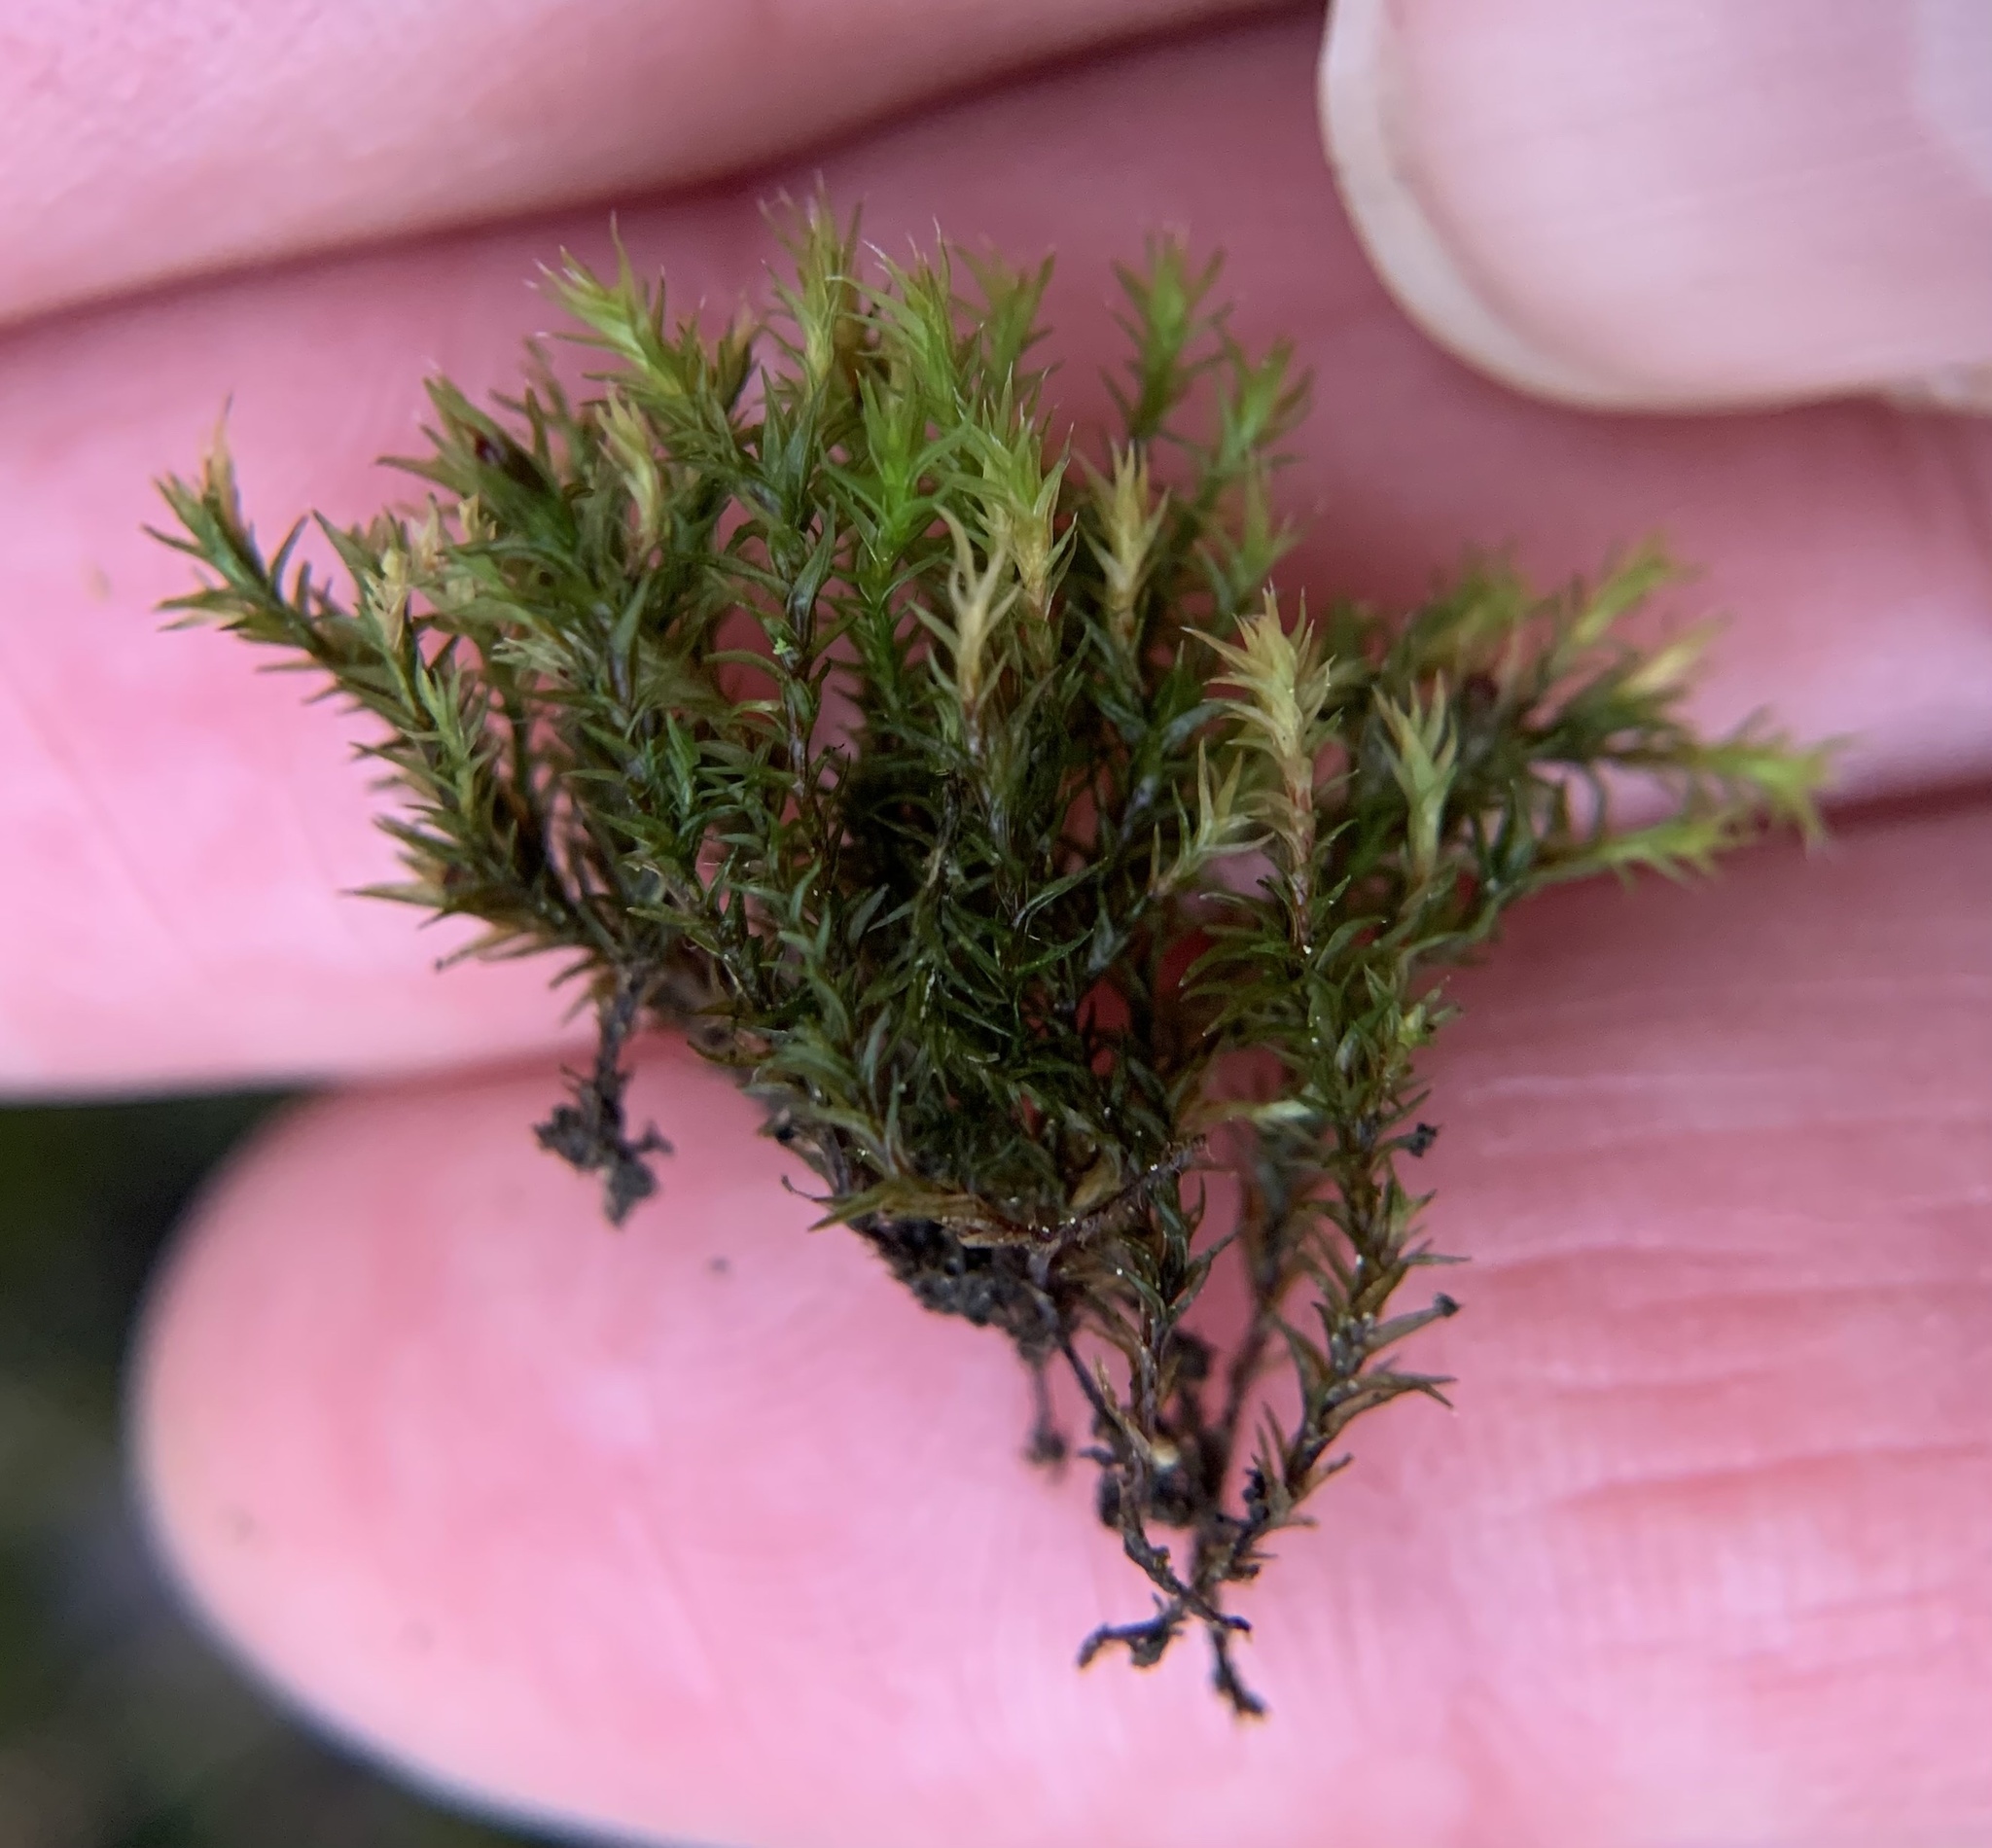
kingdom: Plantae
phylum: Bryophyta
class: Bryopsida
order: Grimmiales
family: Grimmiaceae
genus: Schistidium
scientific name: Schistidium apocarpum
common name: Radiate bloom moss
